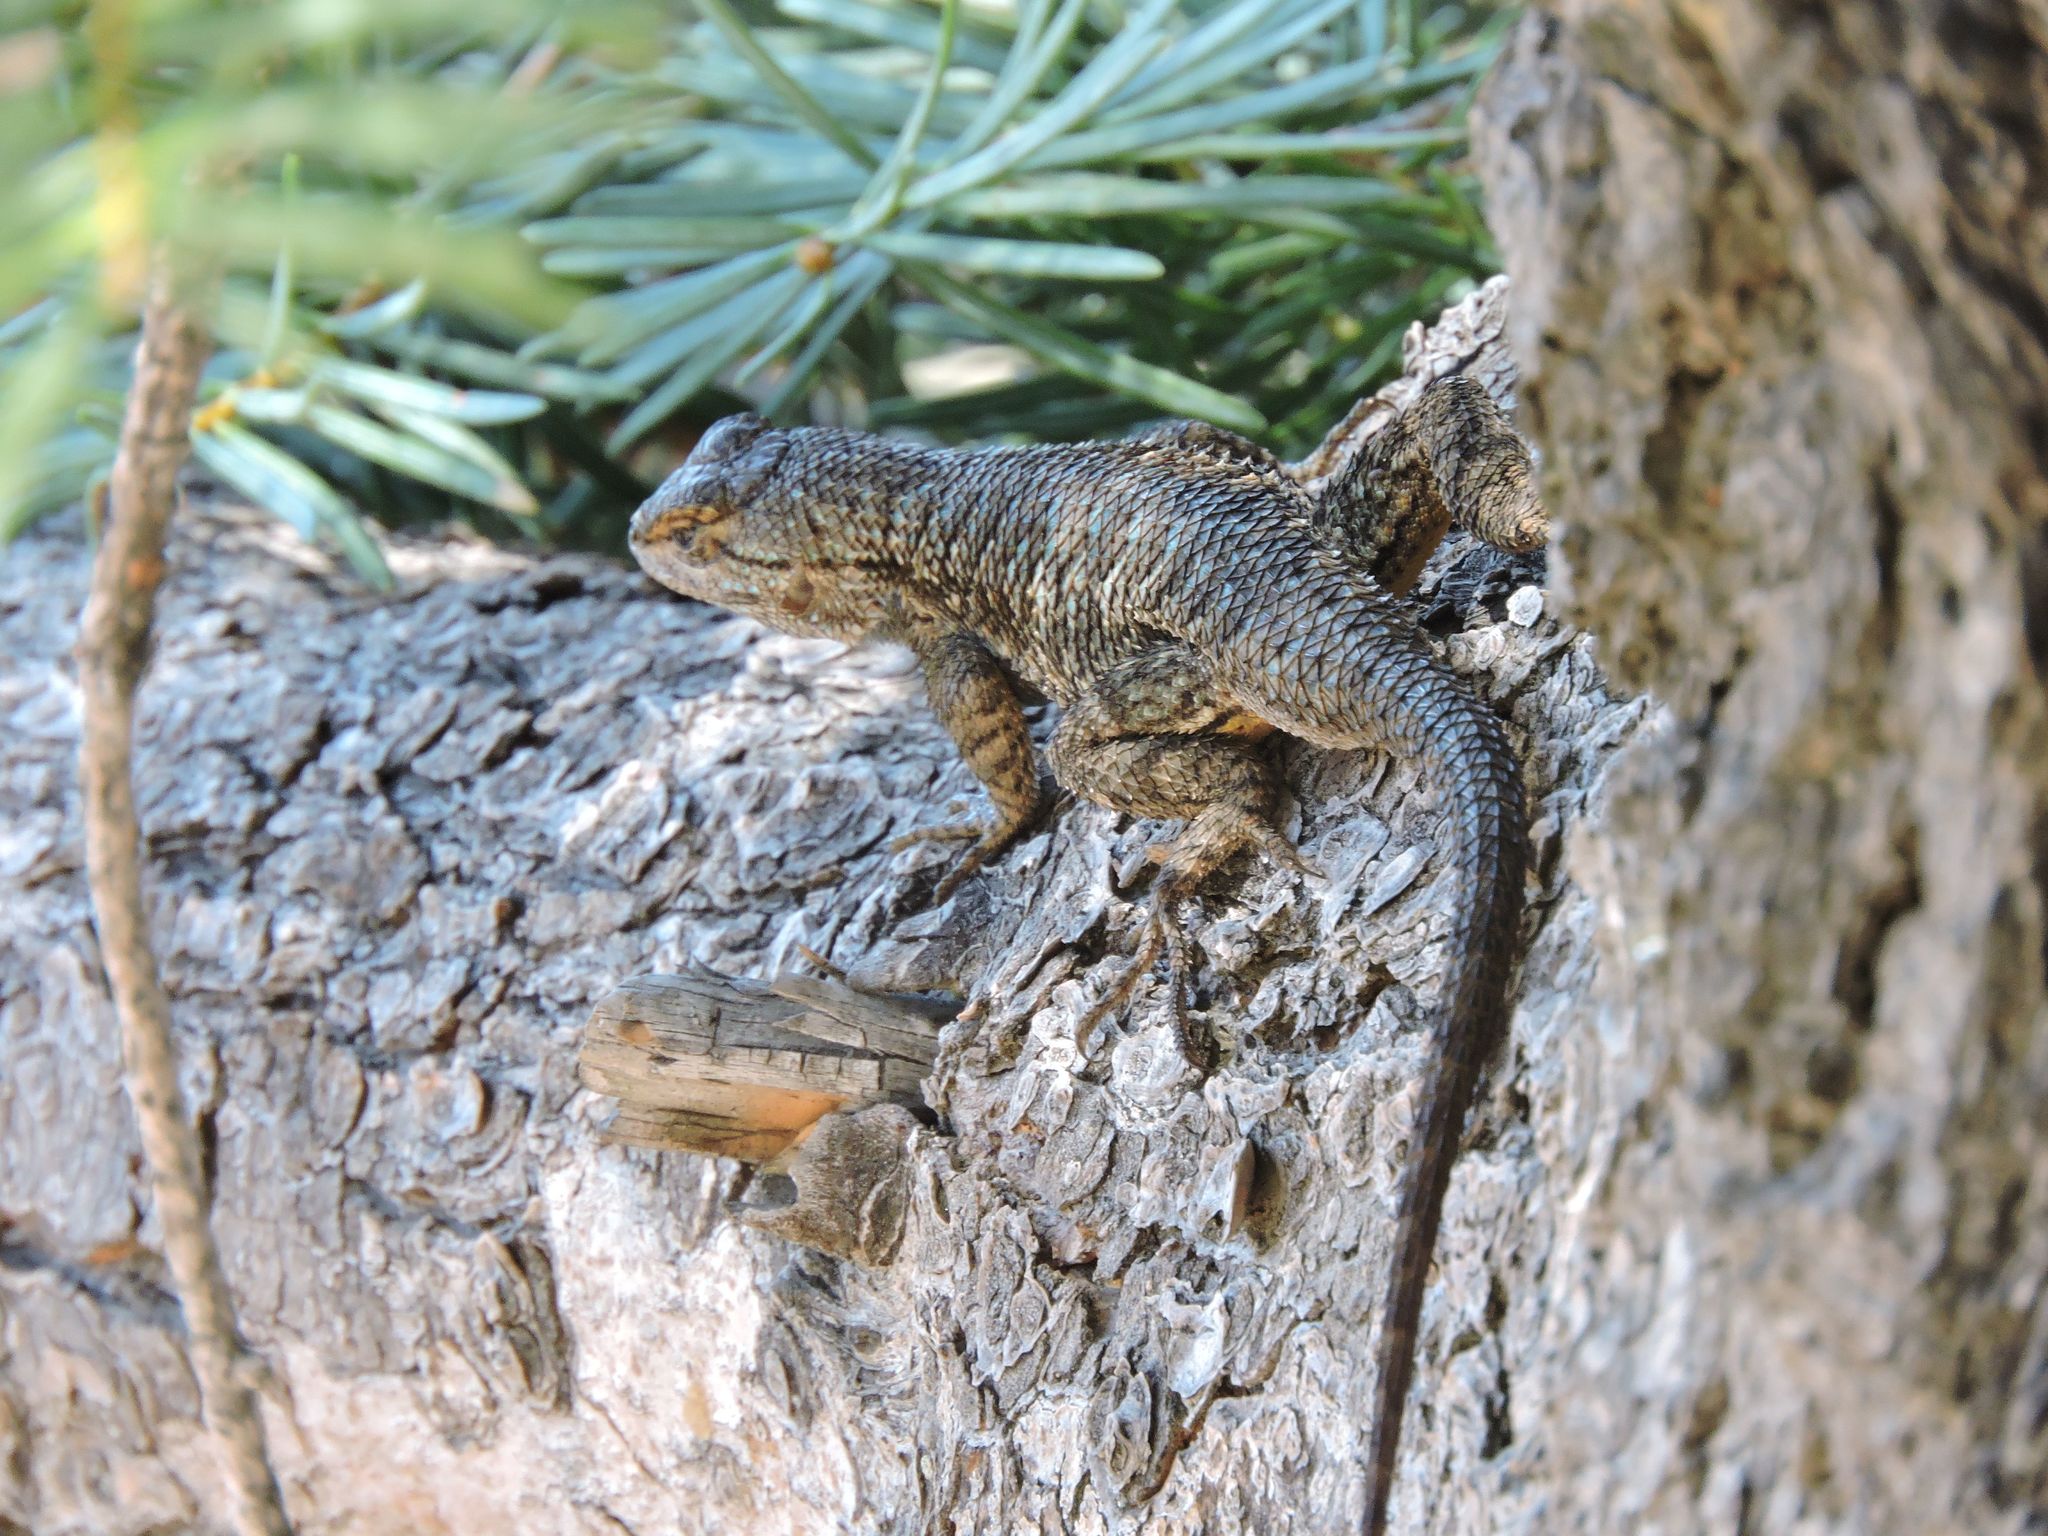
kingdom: Animalia
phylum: Chordata
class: Squamata
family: Phrynosomatidae
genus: Sceloporus
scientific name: Sceloporus occidentalis
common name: Western fence lizard
